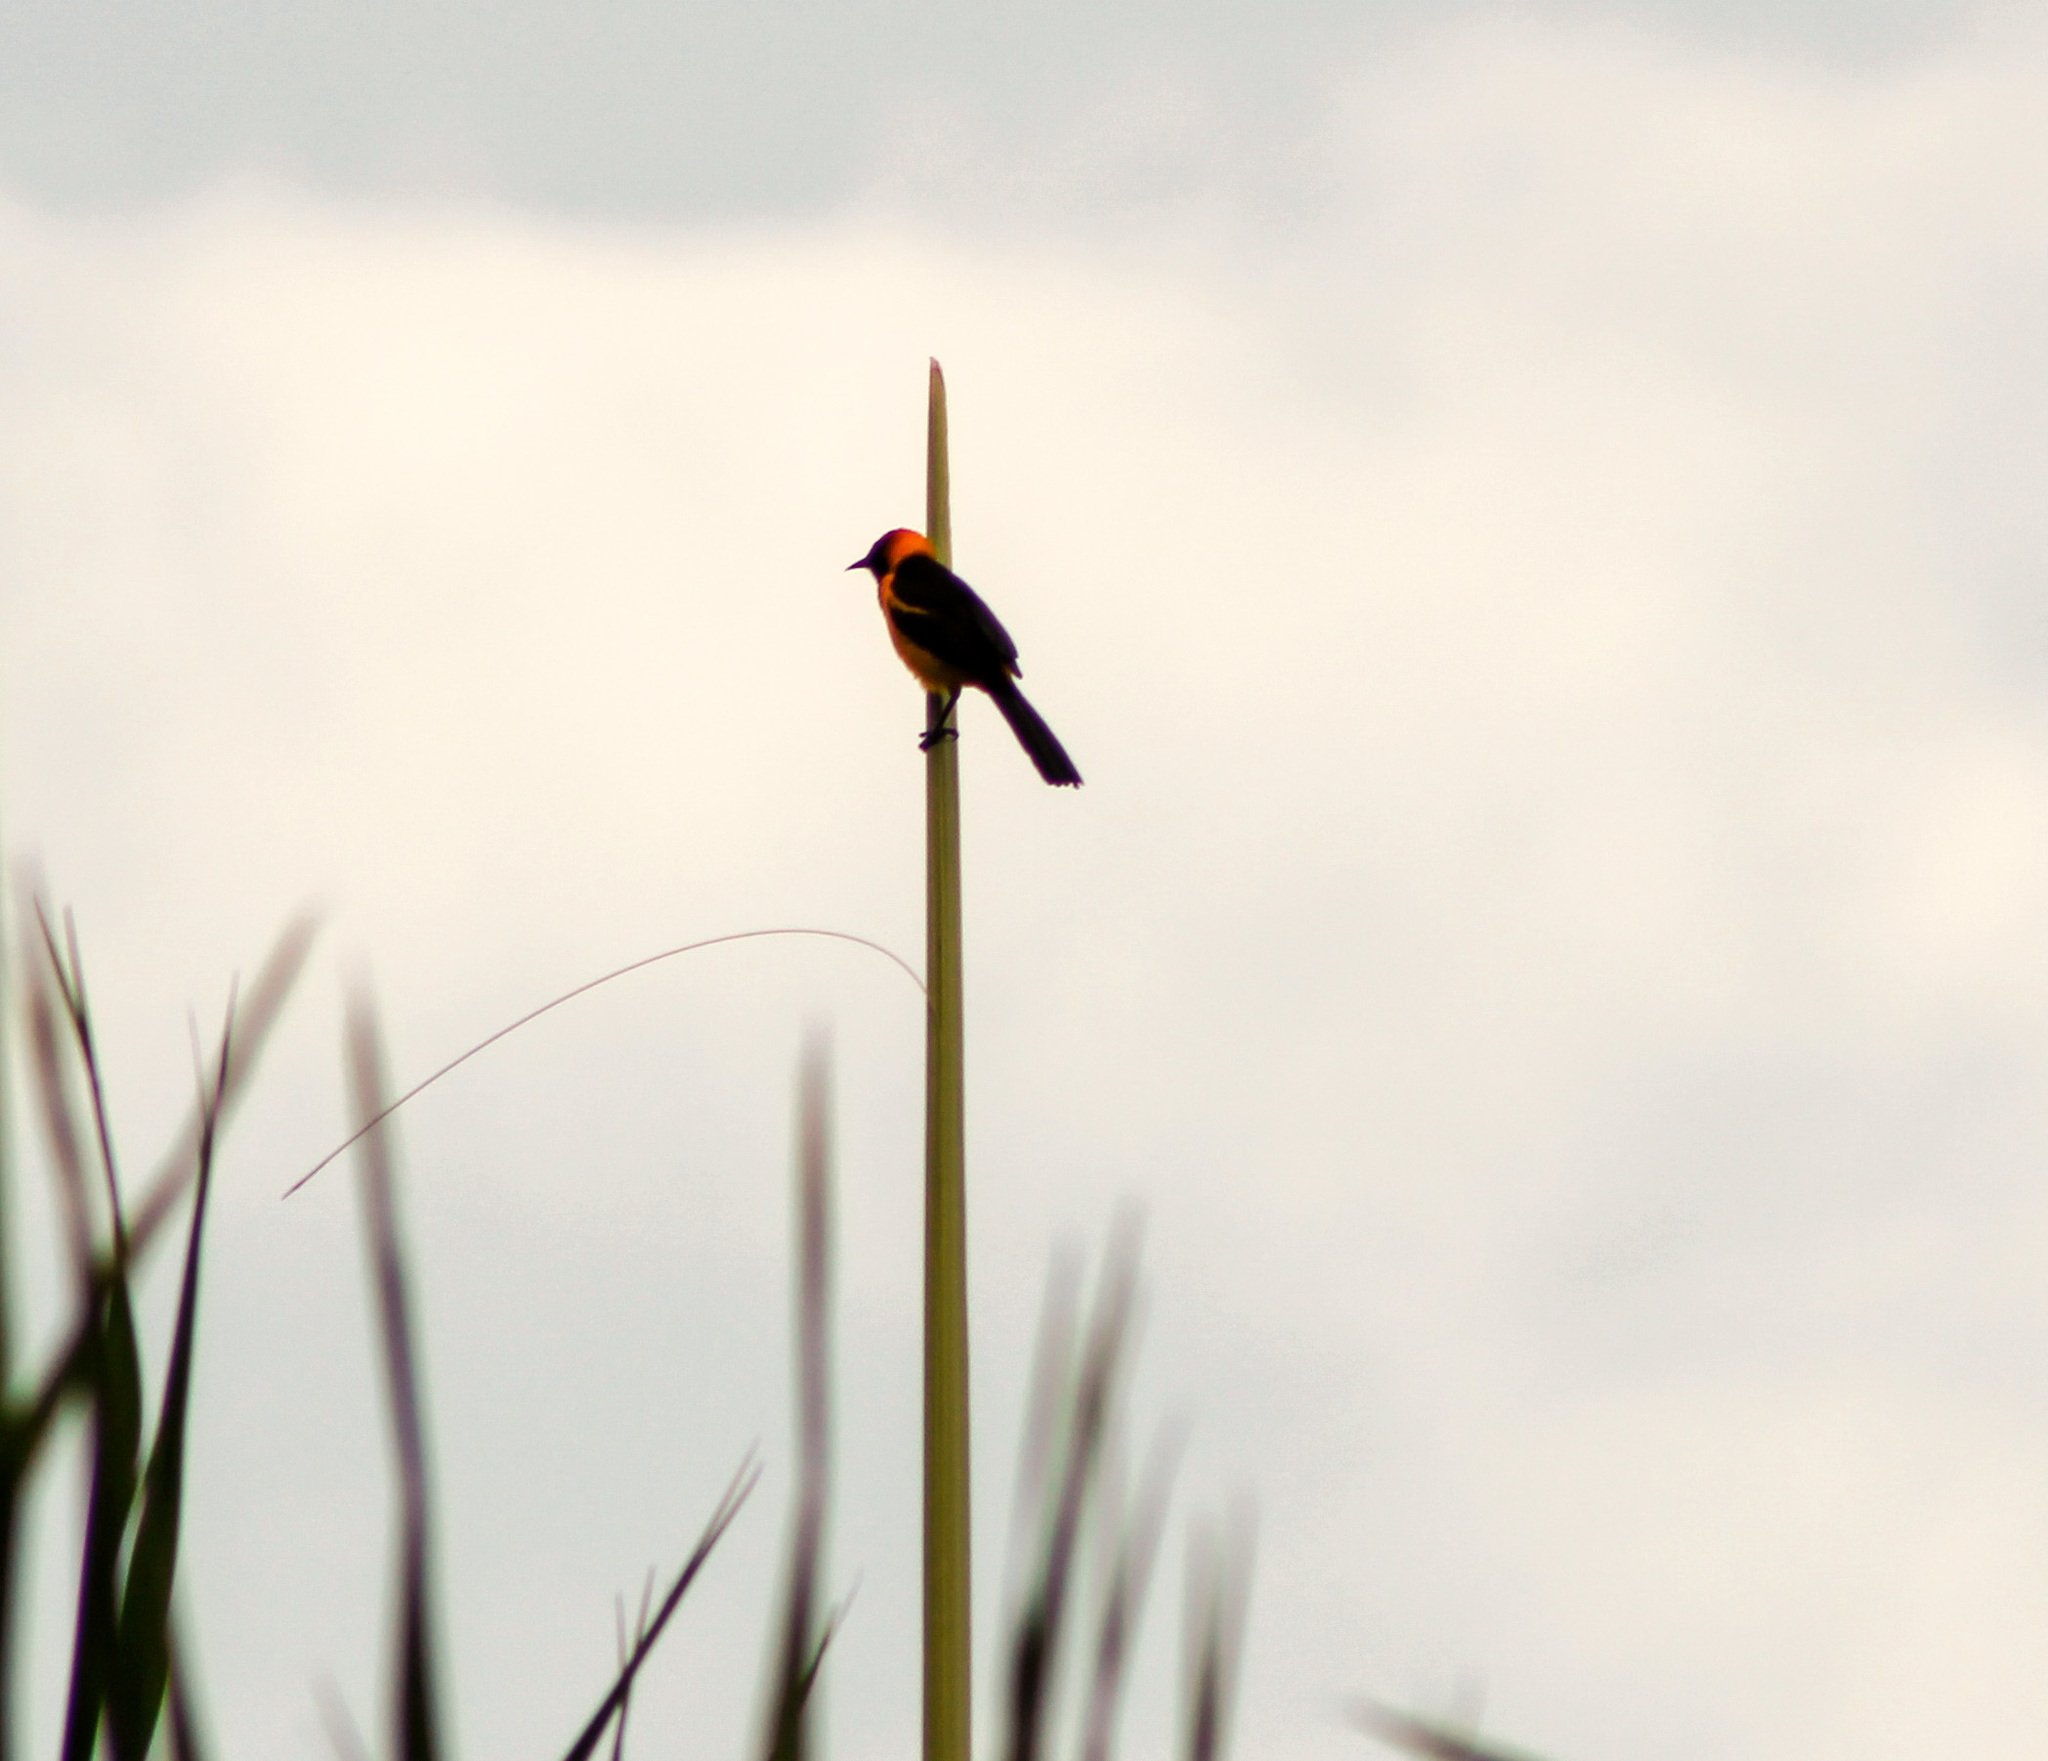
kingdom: Animalia
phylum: Chordata
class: Aves
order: Passeriformes
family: Icteridae
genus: Icterus
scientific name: Icterus auricapillus
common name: Orange-crowned oriole
